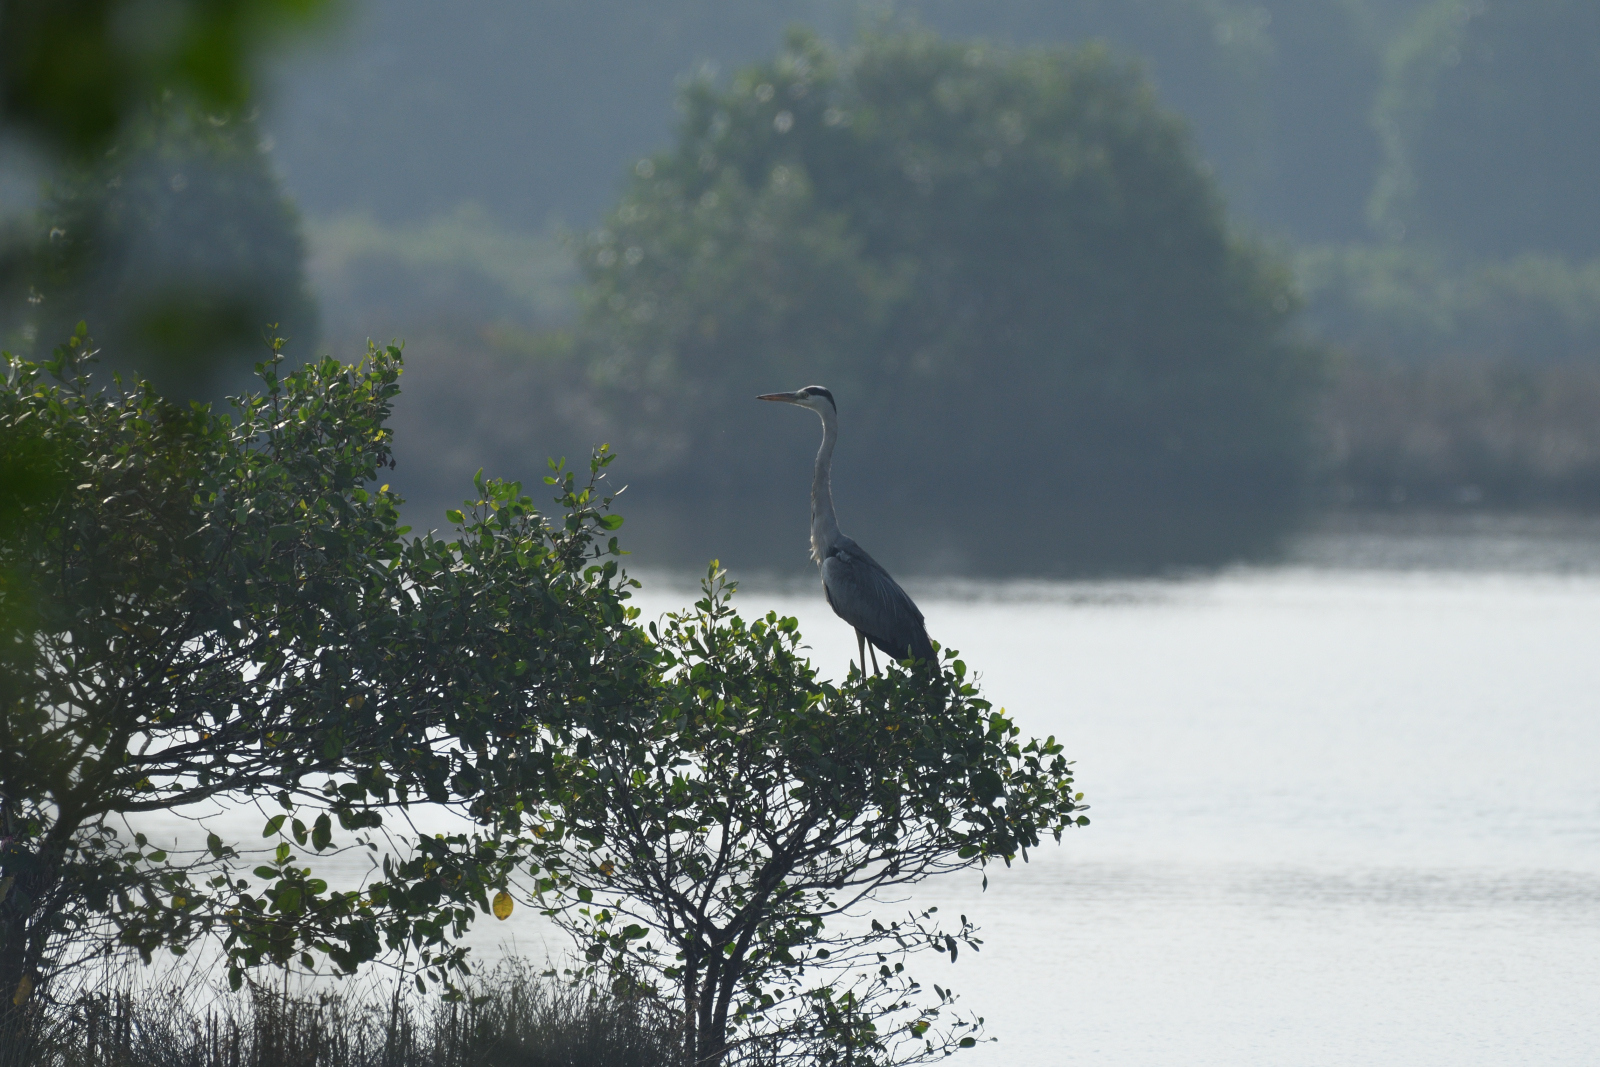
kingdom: Animalia
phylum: Chordata
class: Aves
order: Pelecaniformes
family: Ardeidae
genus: Ardea
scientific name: Ardea cinerea
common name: Grey heron
